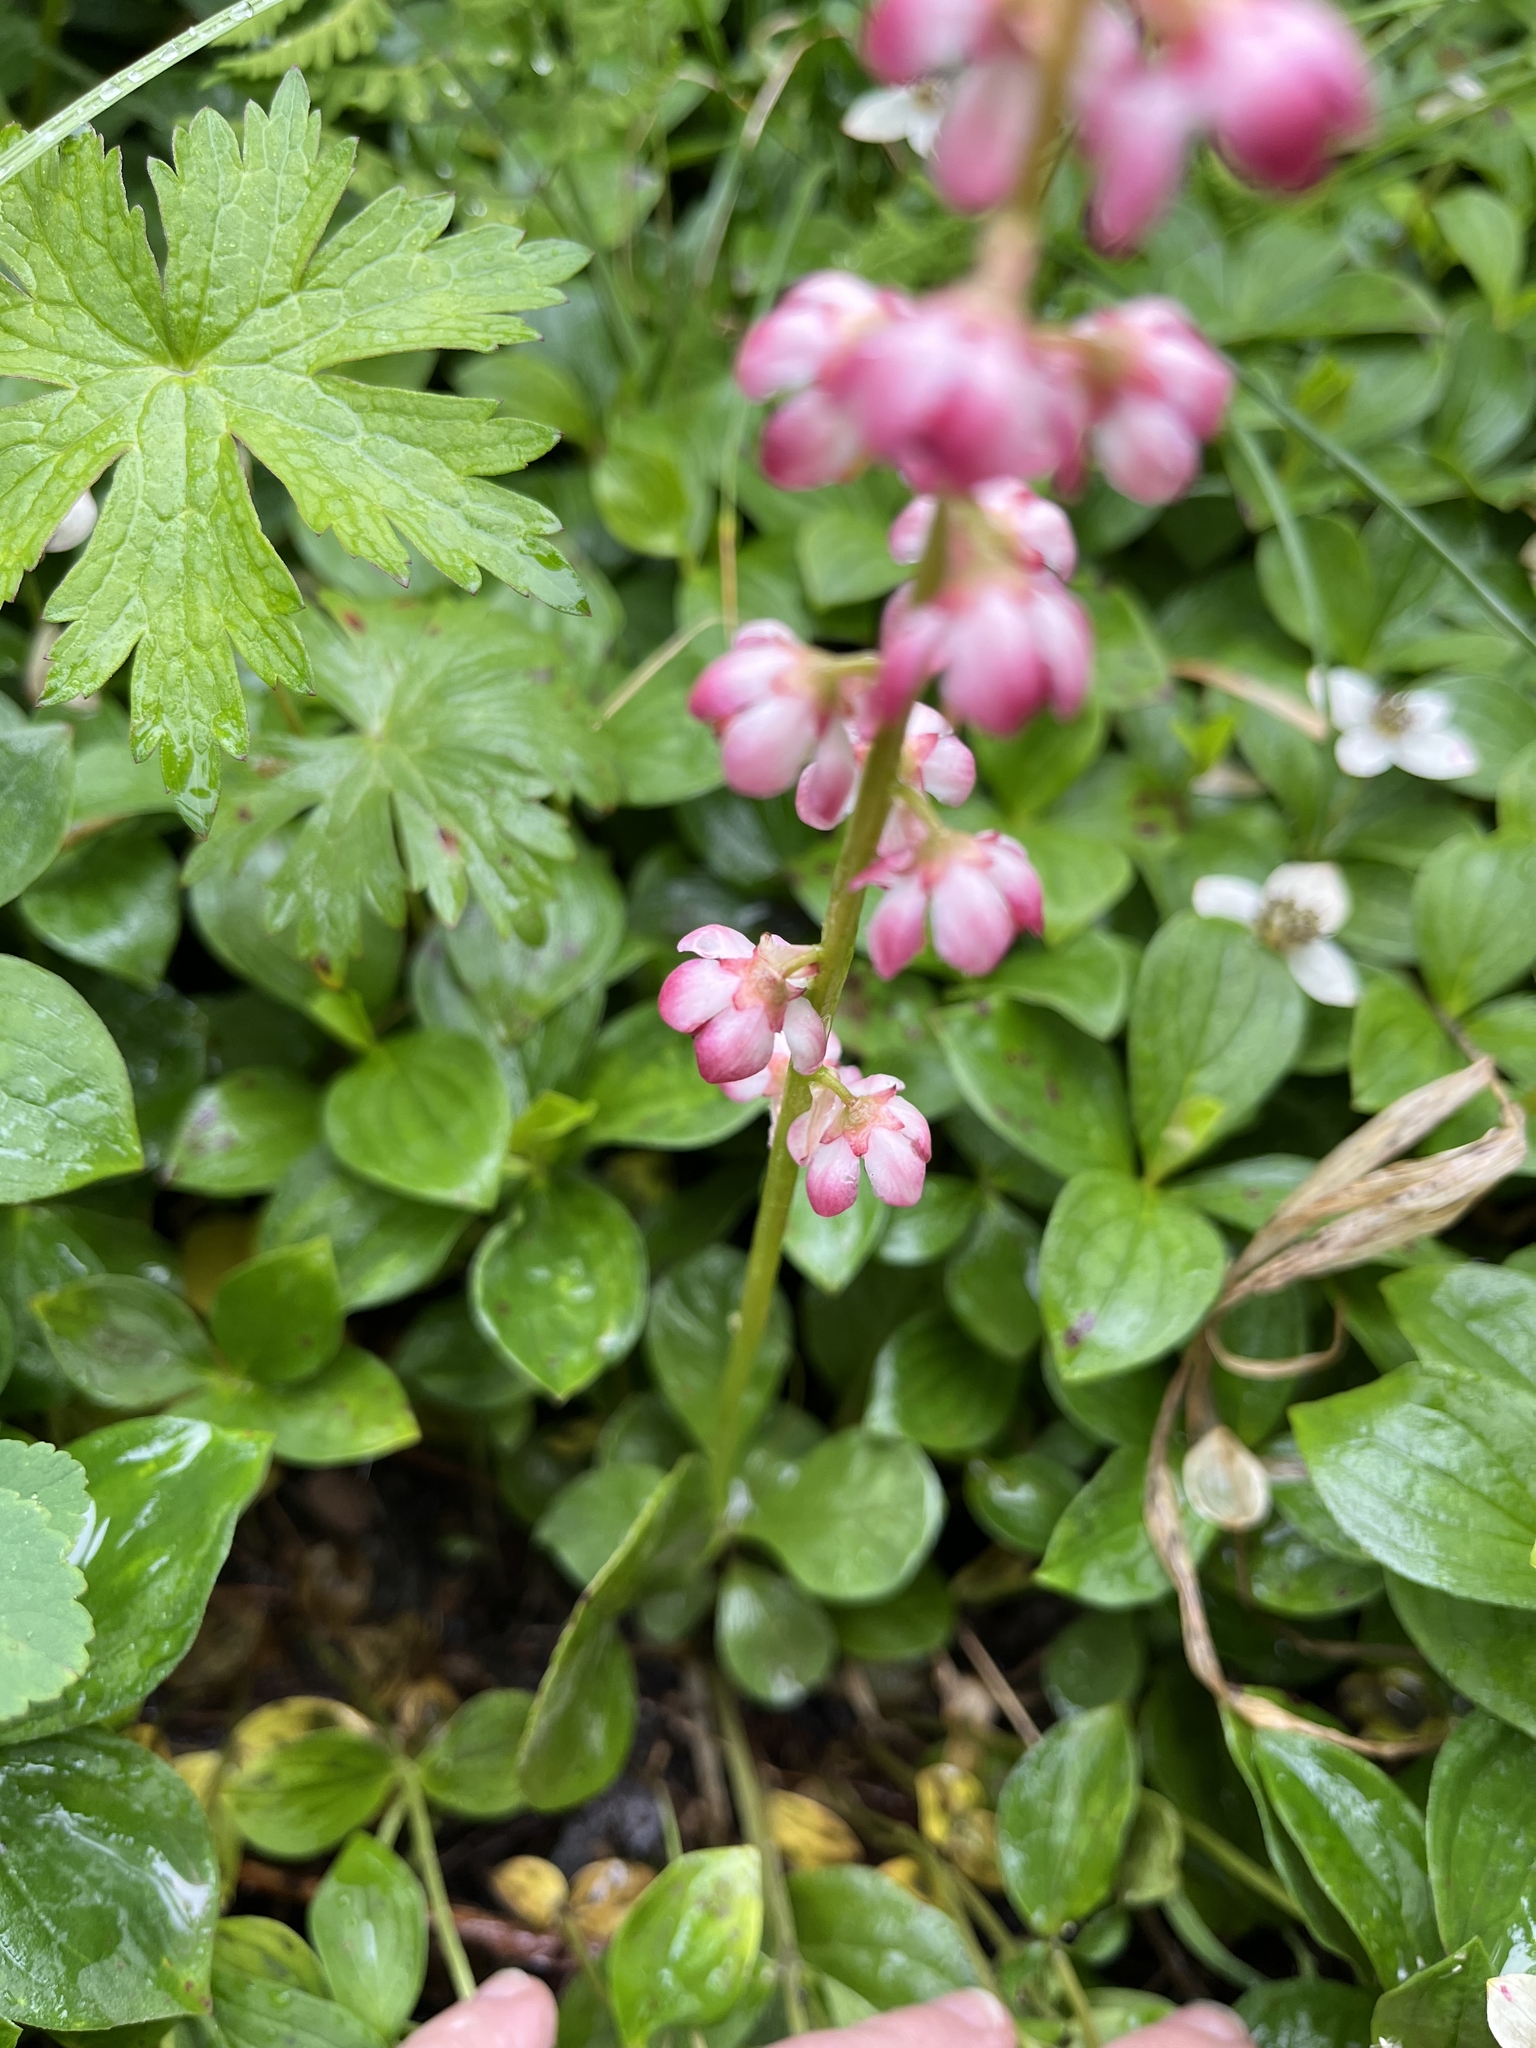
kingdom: Plantae
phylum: Tracheophyta
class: Magnoliopsida
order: Ericales
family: Ericaceae
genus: Pyrola
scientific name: Pyrola asarifolia
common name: Bog wintergreen
